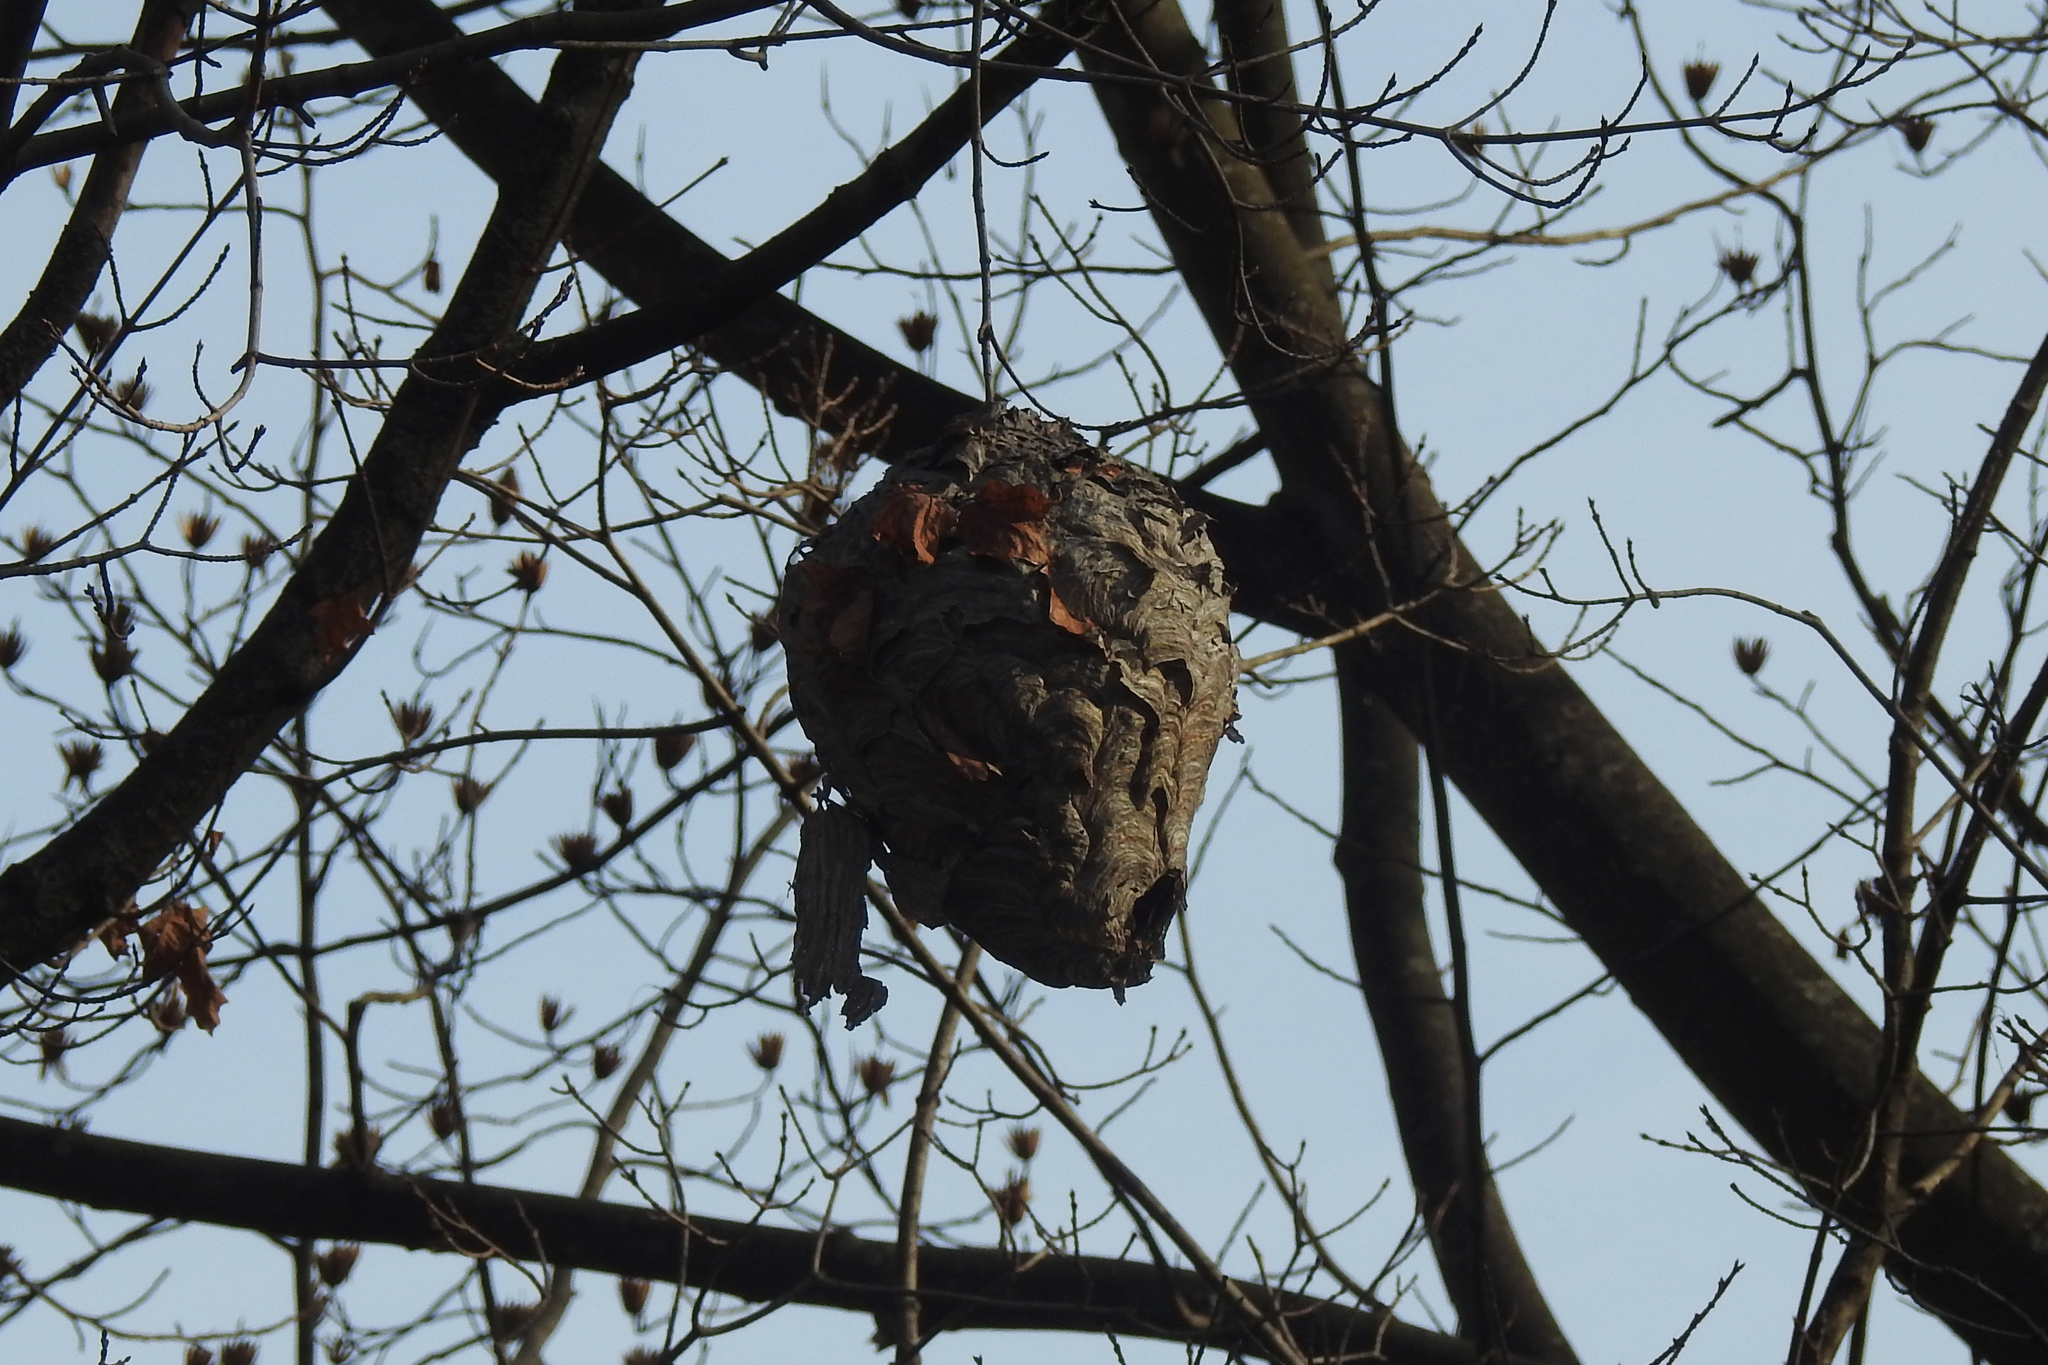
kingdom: Animalia
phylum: Arthropoda
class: Insecta
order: Hymenoptera
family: Vespidae
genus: Dolichovespula
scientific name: Dolichovespula maculata
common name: Bald-faced hornet
